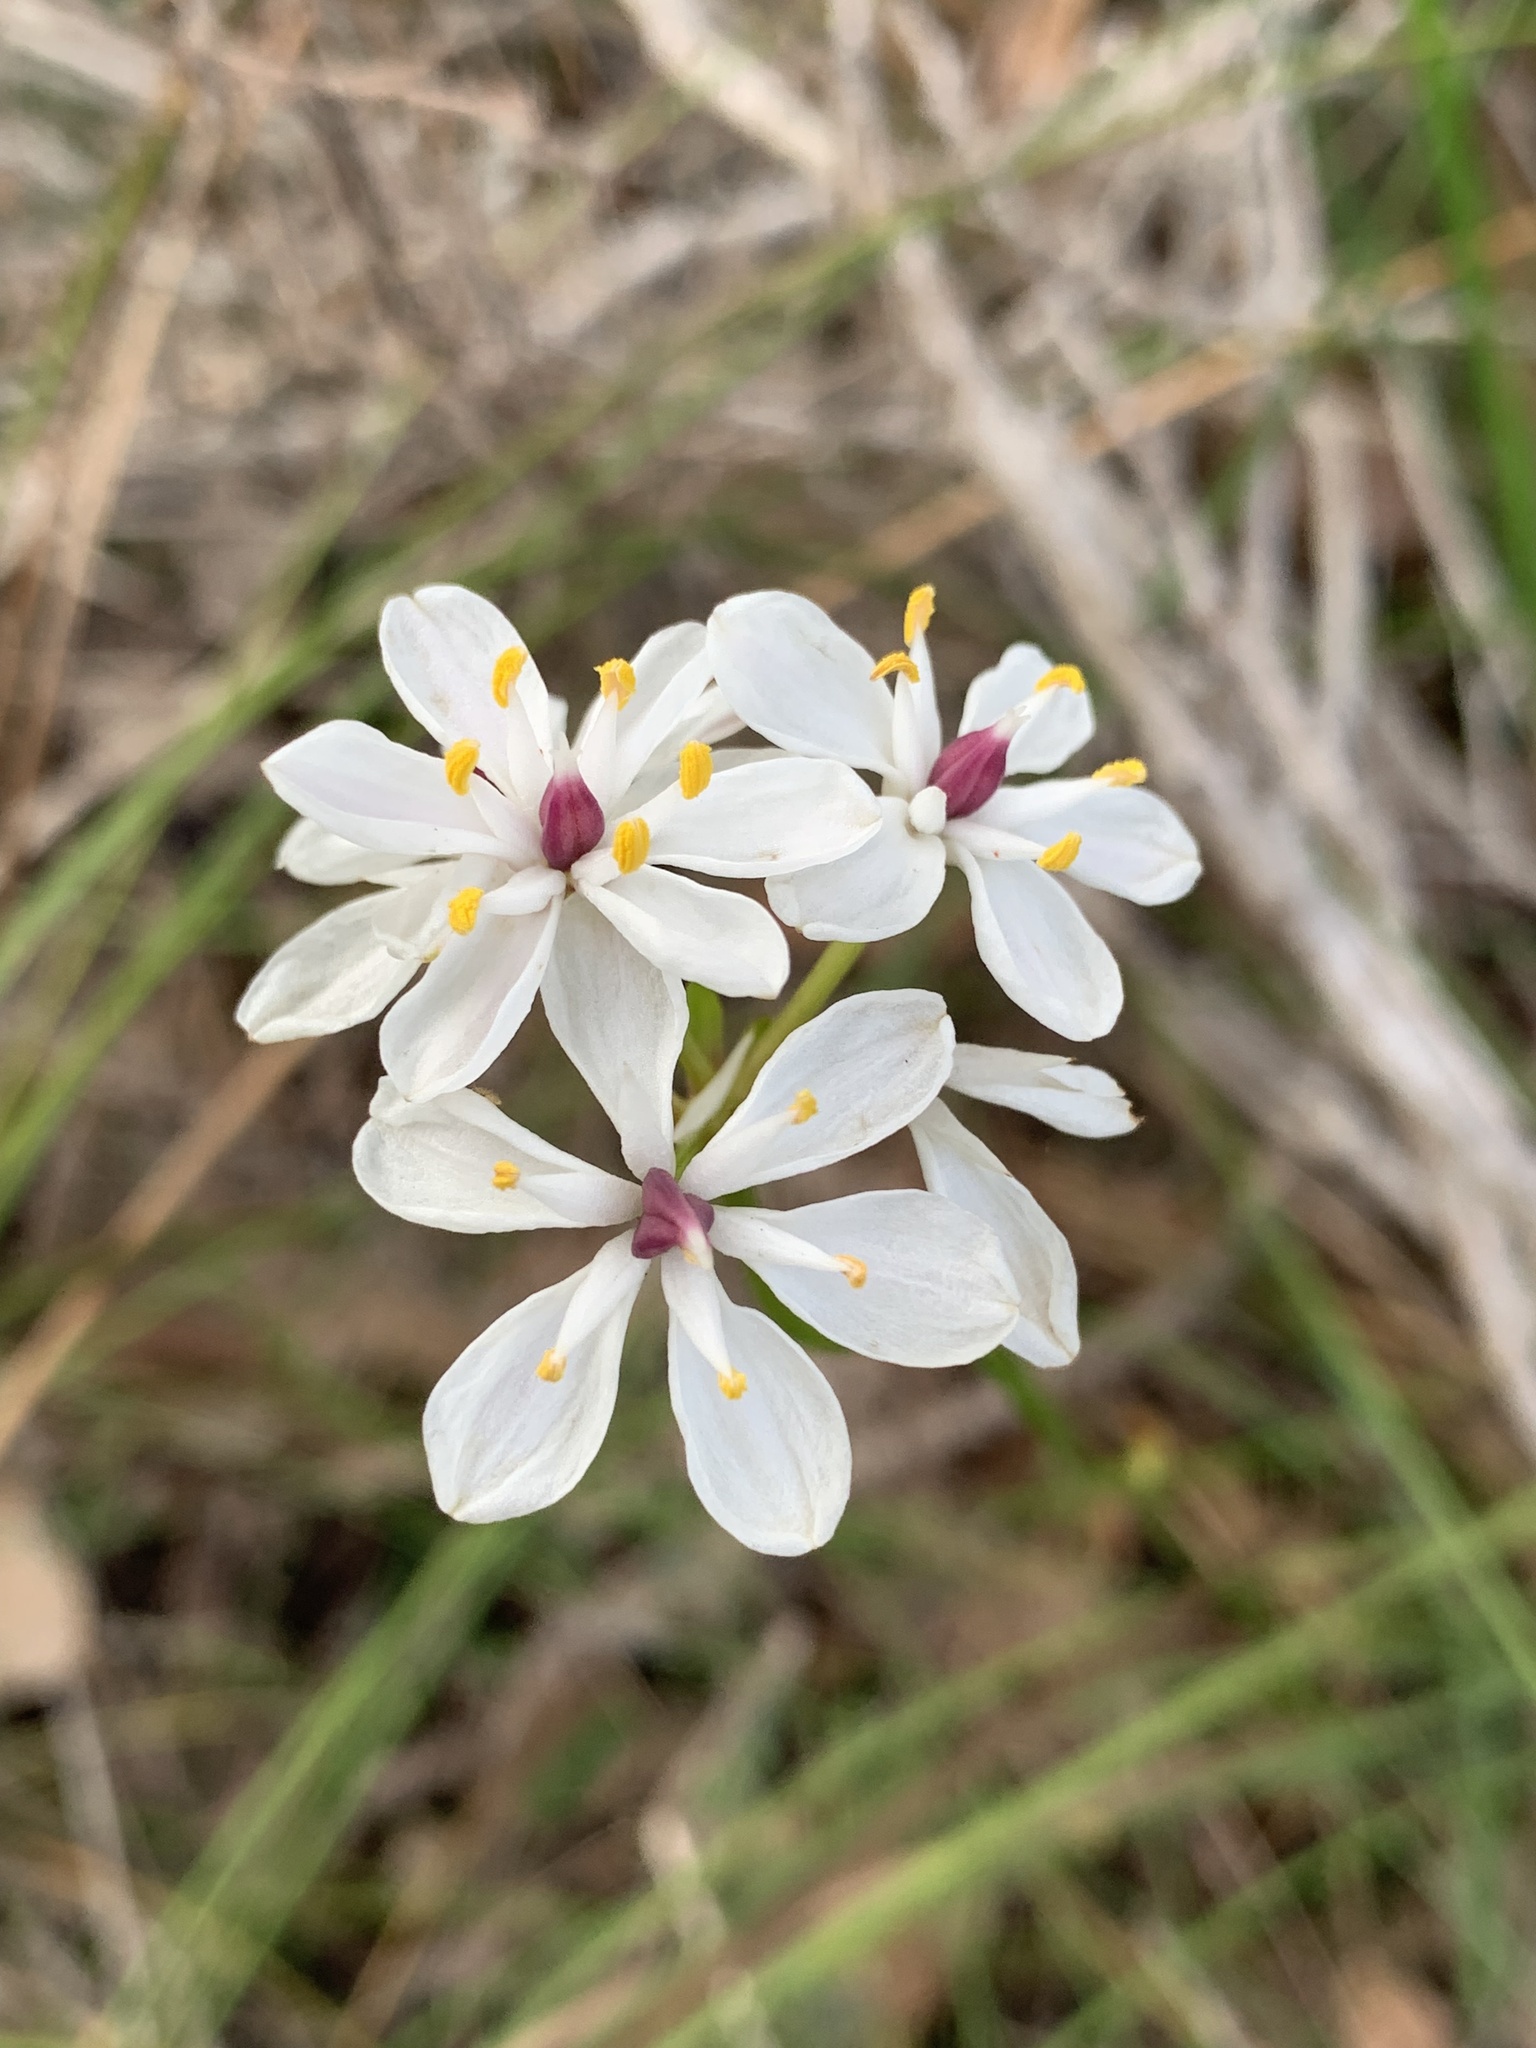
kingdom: Plantae
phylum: Tracheophyta
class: Liliopsida
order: Liliales
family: Colchicaceae
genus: Burchardia
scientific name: Burchardia congesta
